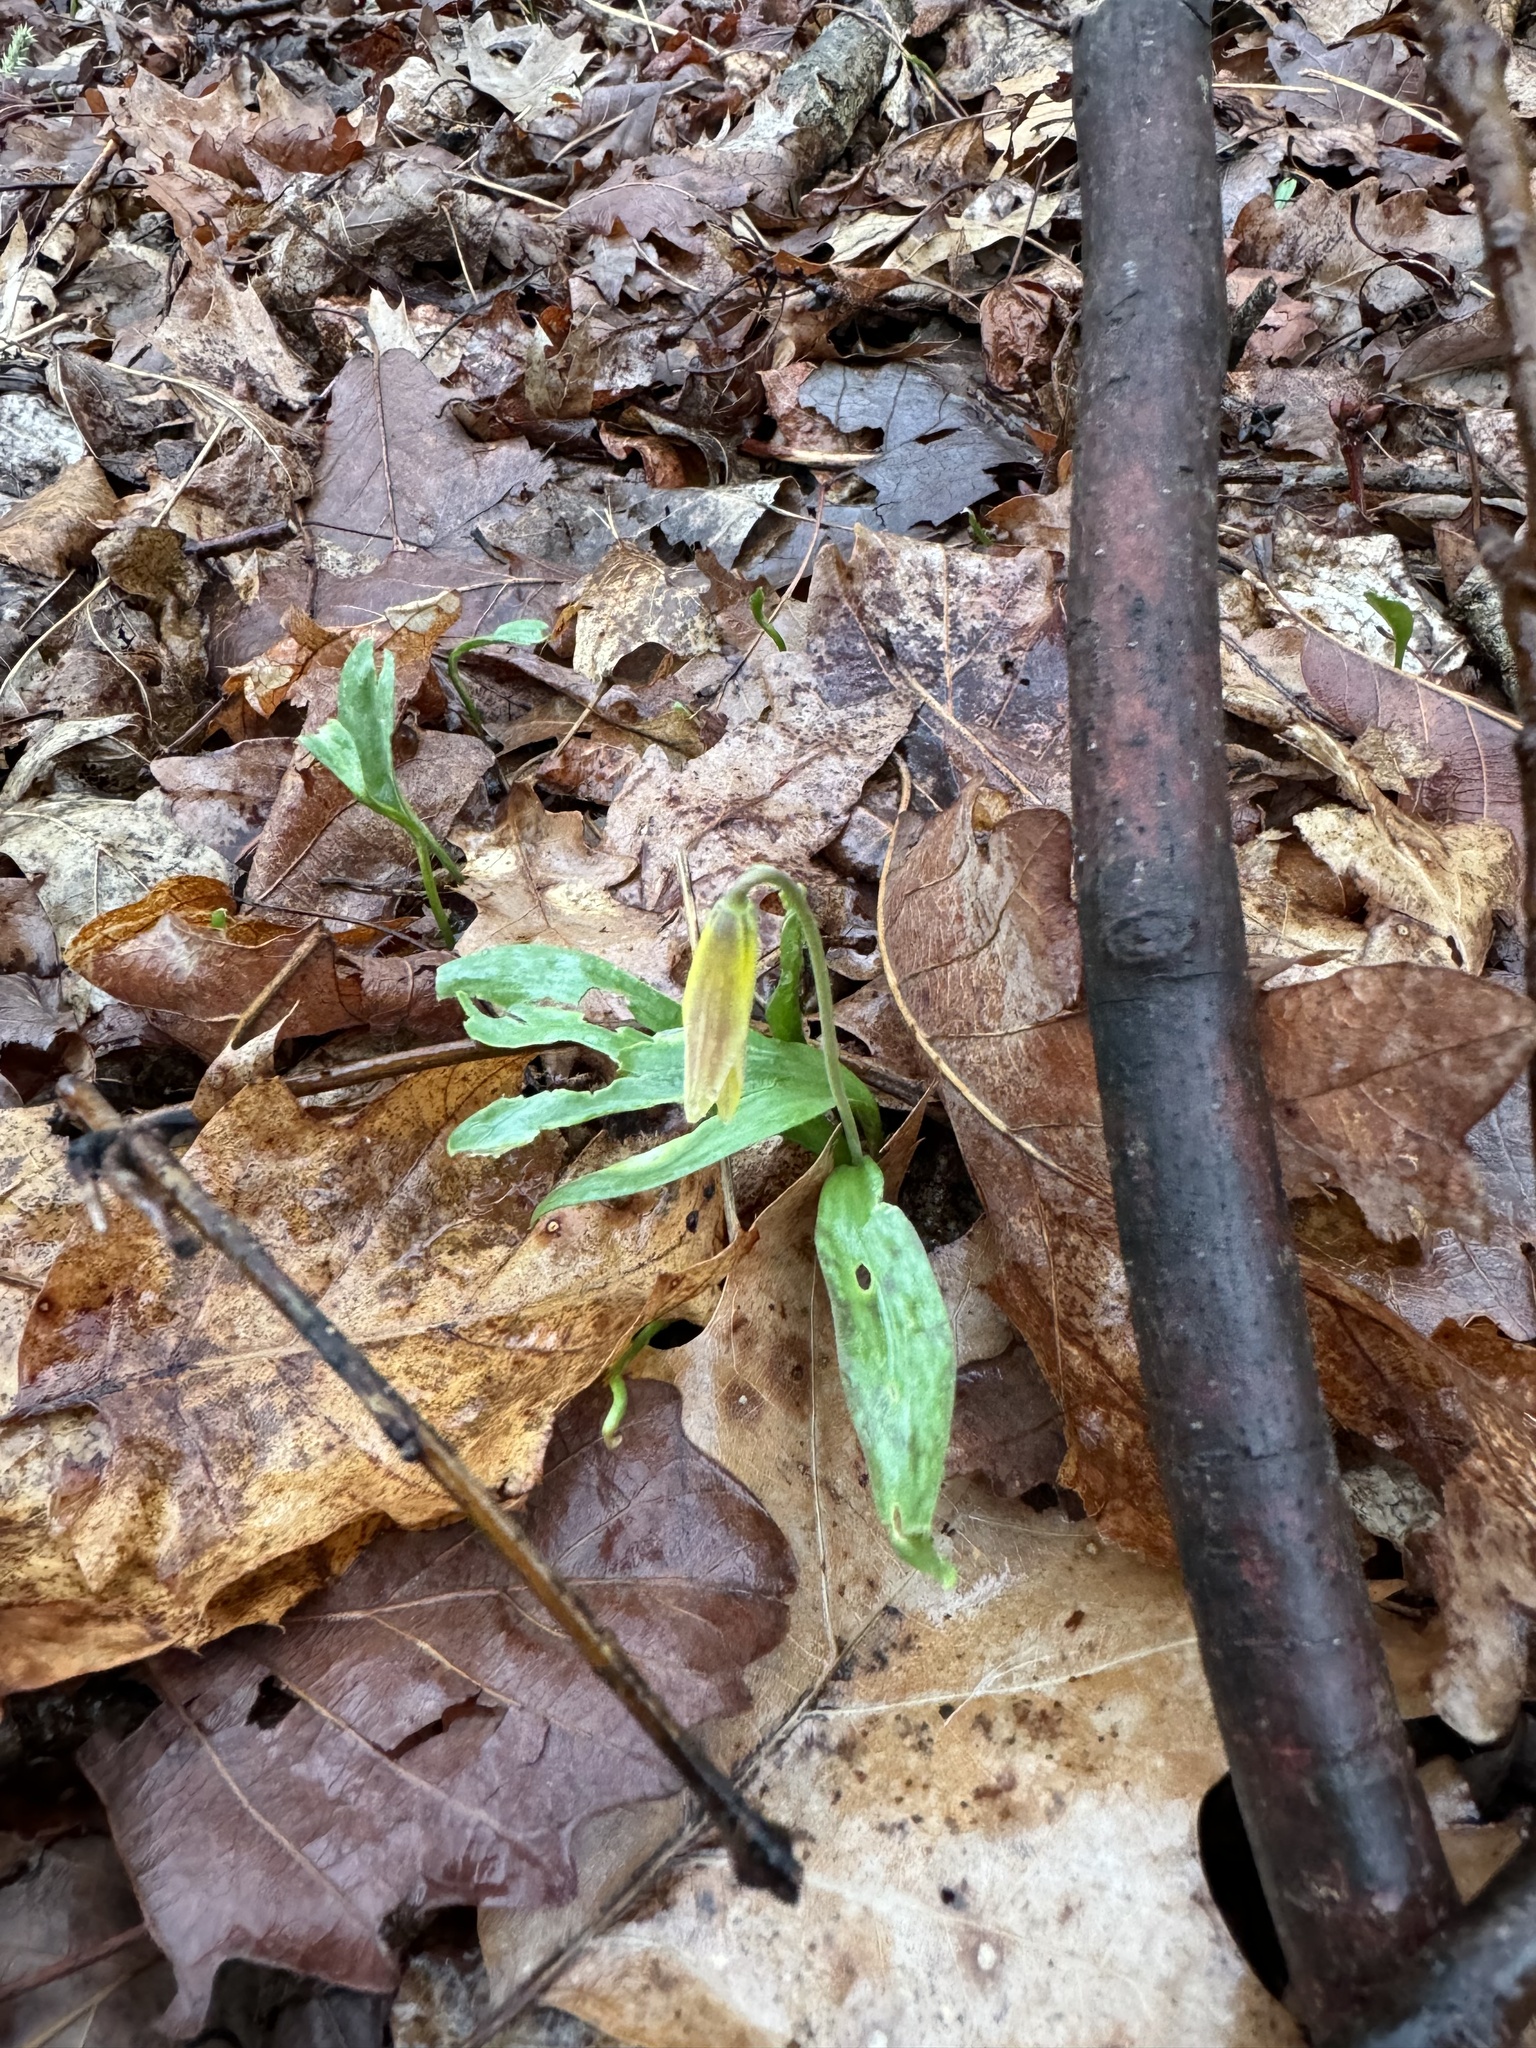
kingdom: Plantae
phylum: Tracheophyta
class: Liliopsida
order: Liliales
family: Liliaceae
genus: Erythronium
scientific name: Erythronium americanum
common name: Yellow adder's-tongue
